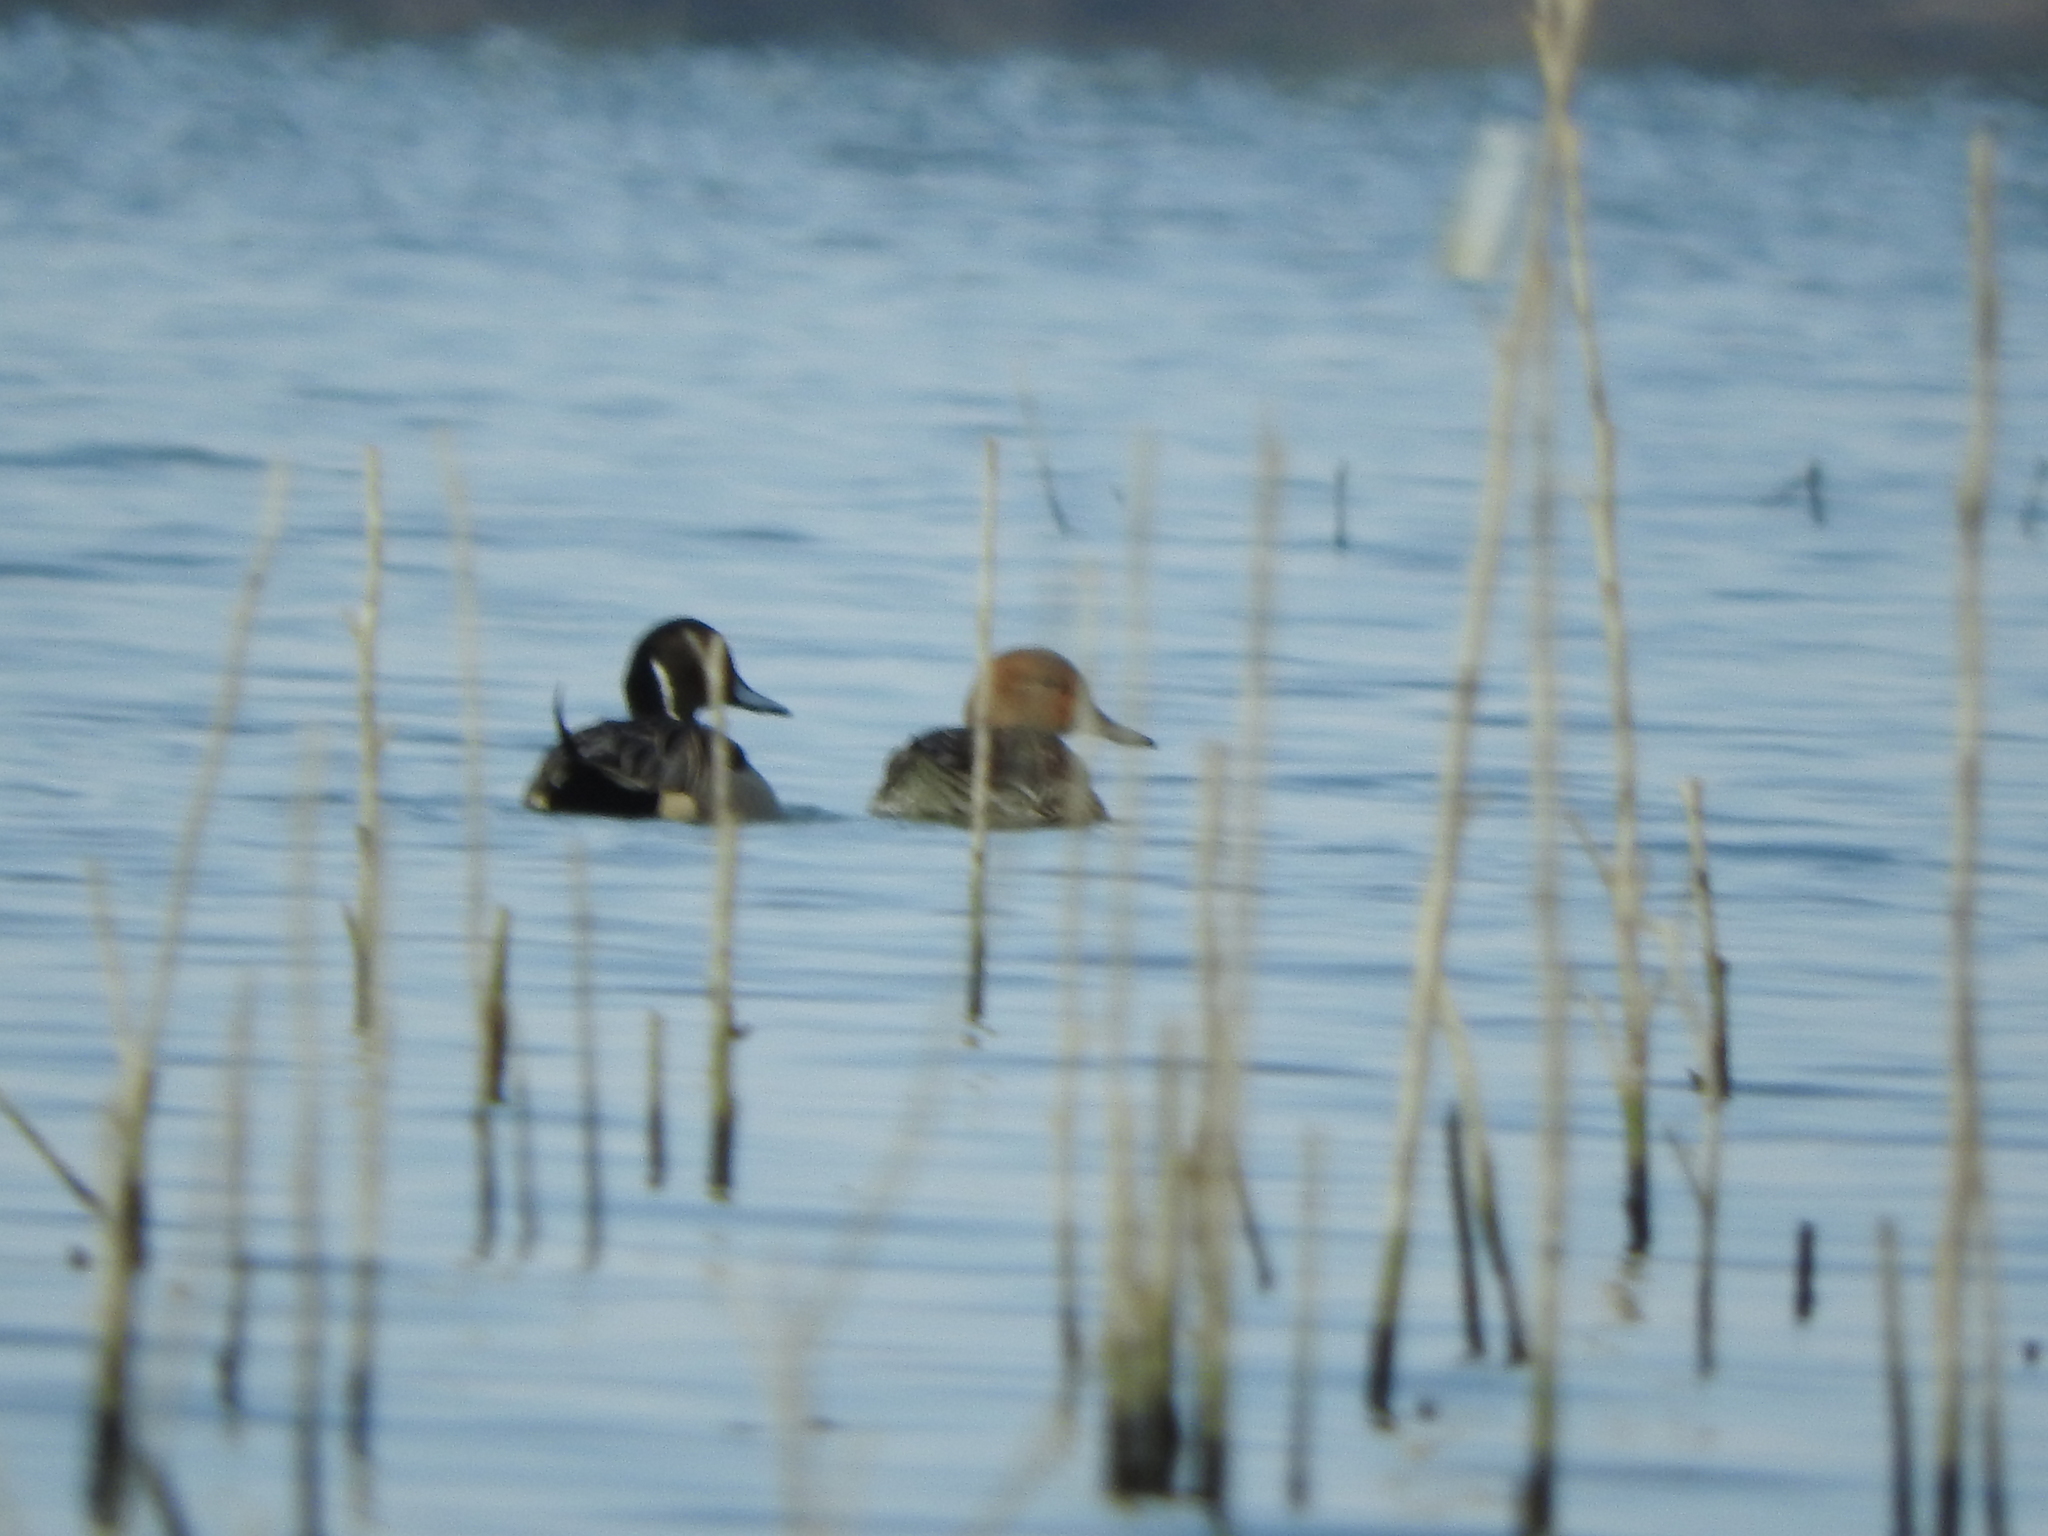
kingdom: Animalia
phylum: Chordata
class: Aves
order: Anseriformes
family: Anatidae
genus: Anas
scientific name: Anas acuta
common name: Northern pintail
